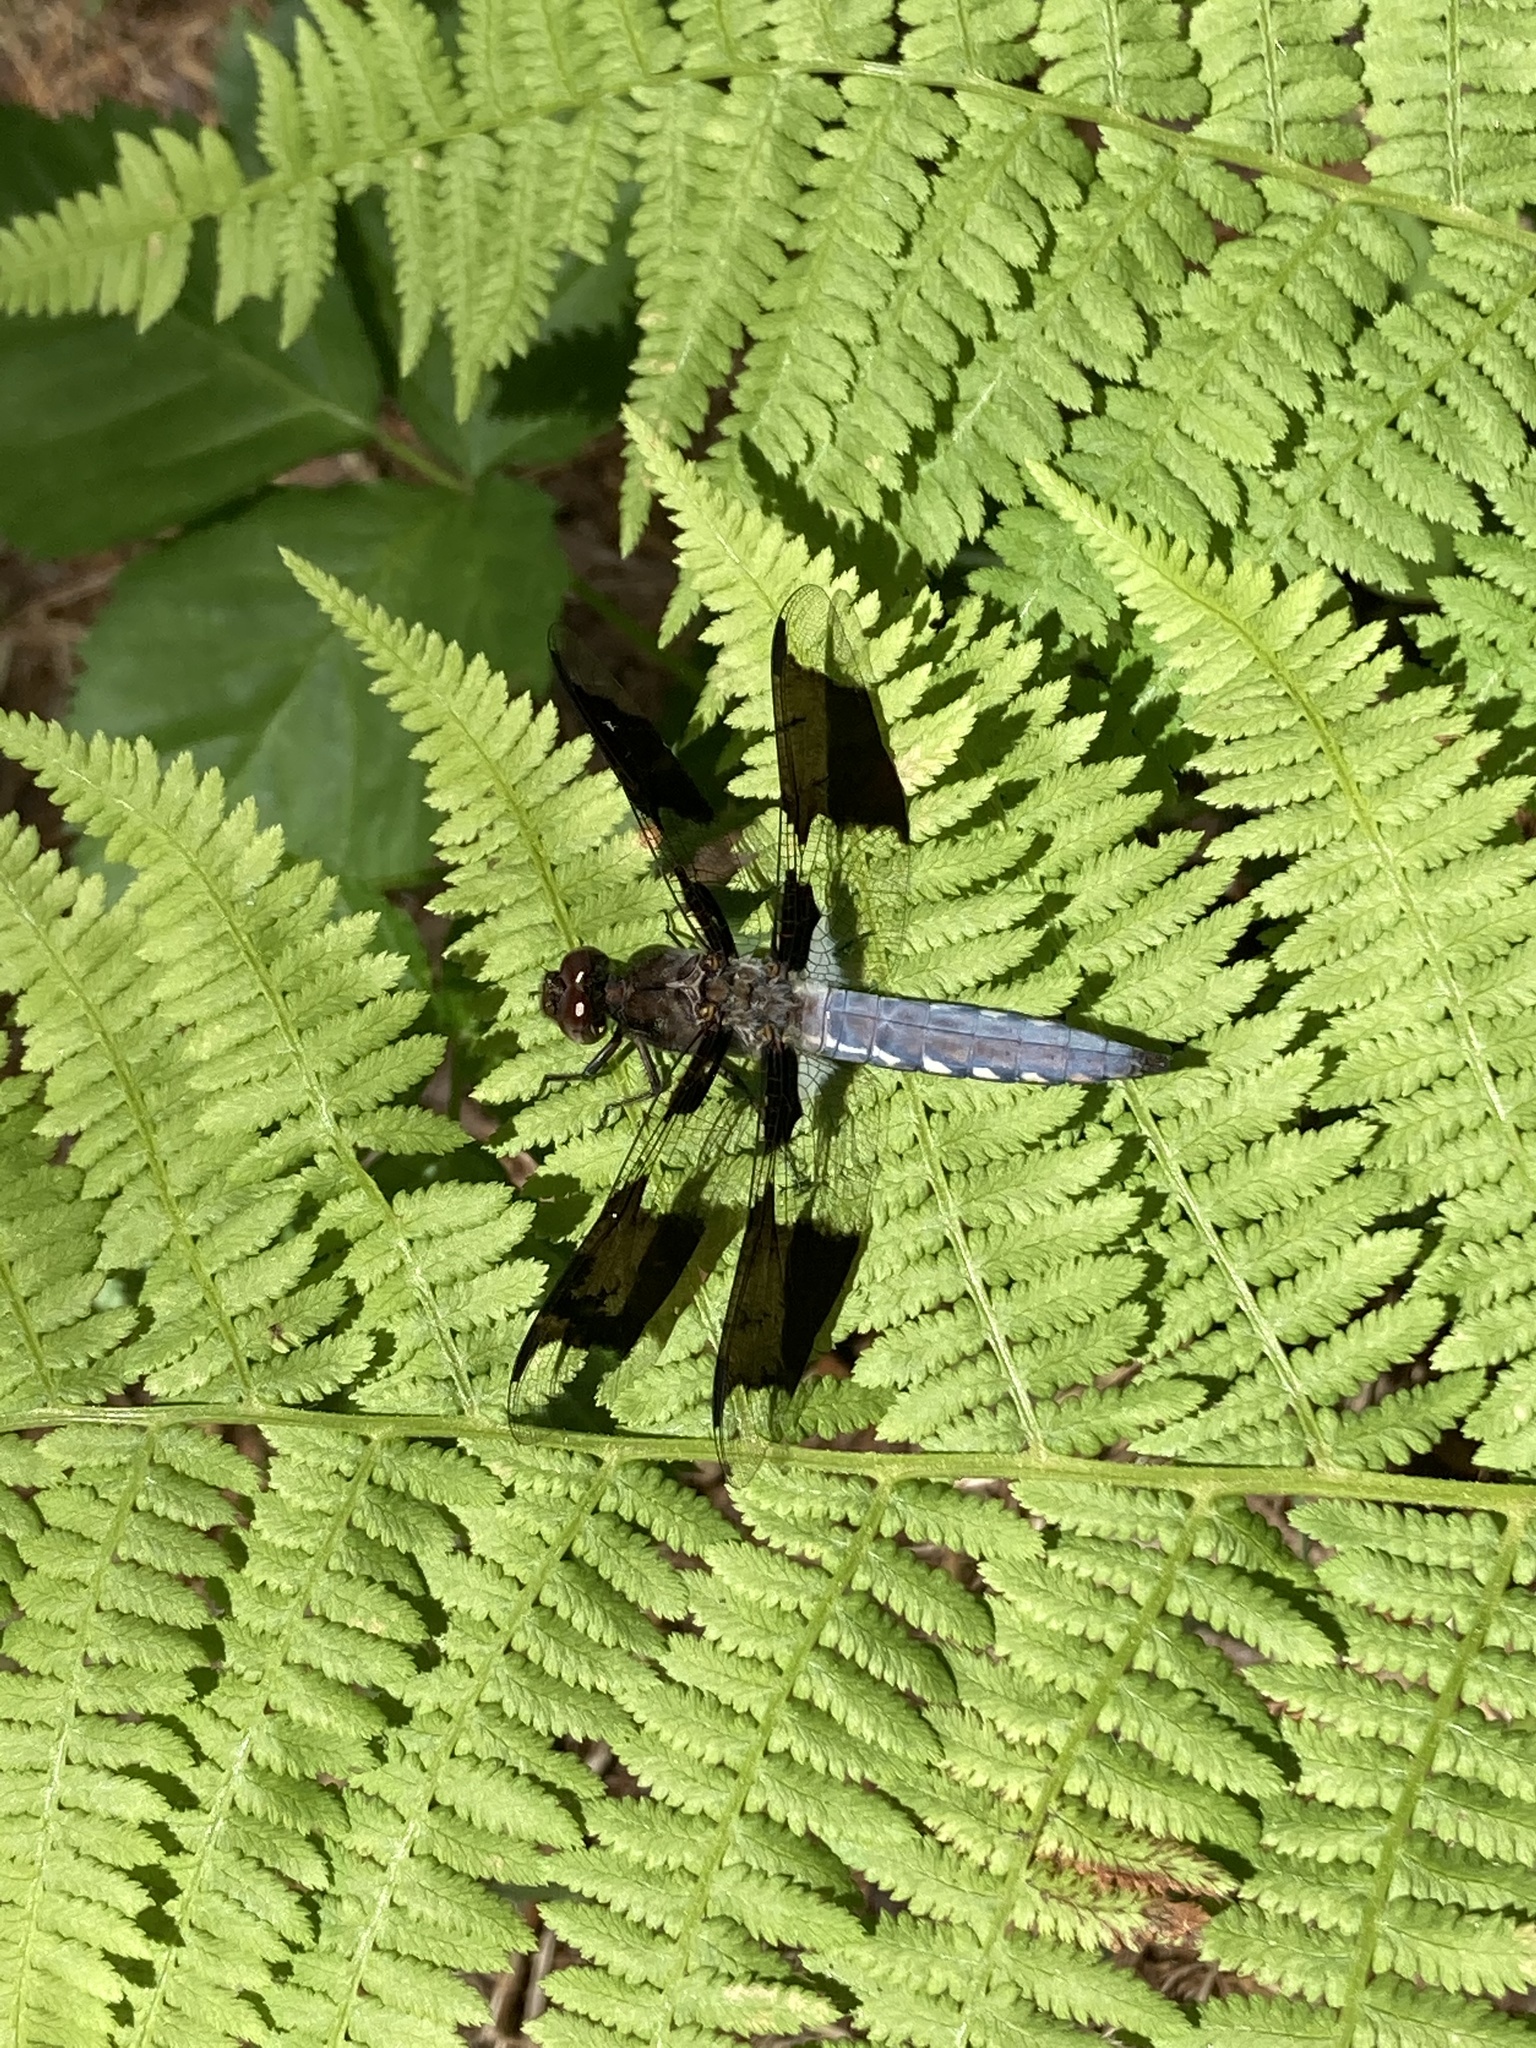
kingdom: Animalia
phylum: Arthropoda
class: Insecta
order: Odonata
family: Libellulidae
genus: Plathemis
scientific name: Plathemis lydia
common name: Common whitetail
